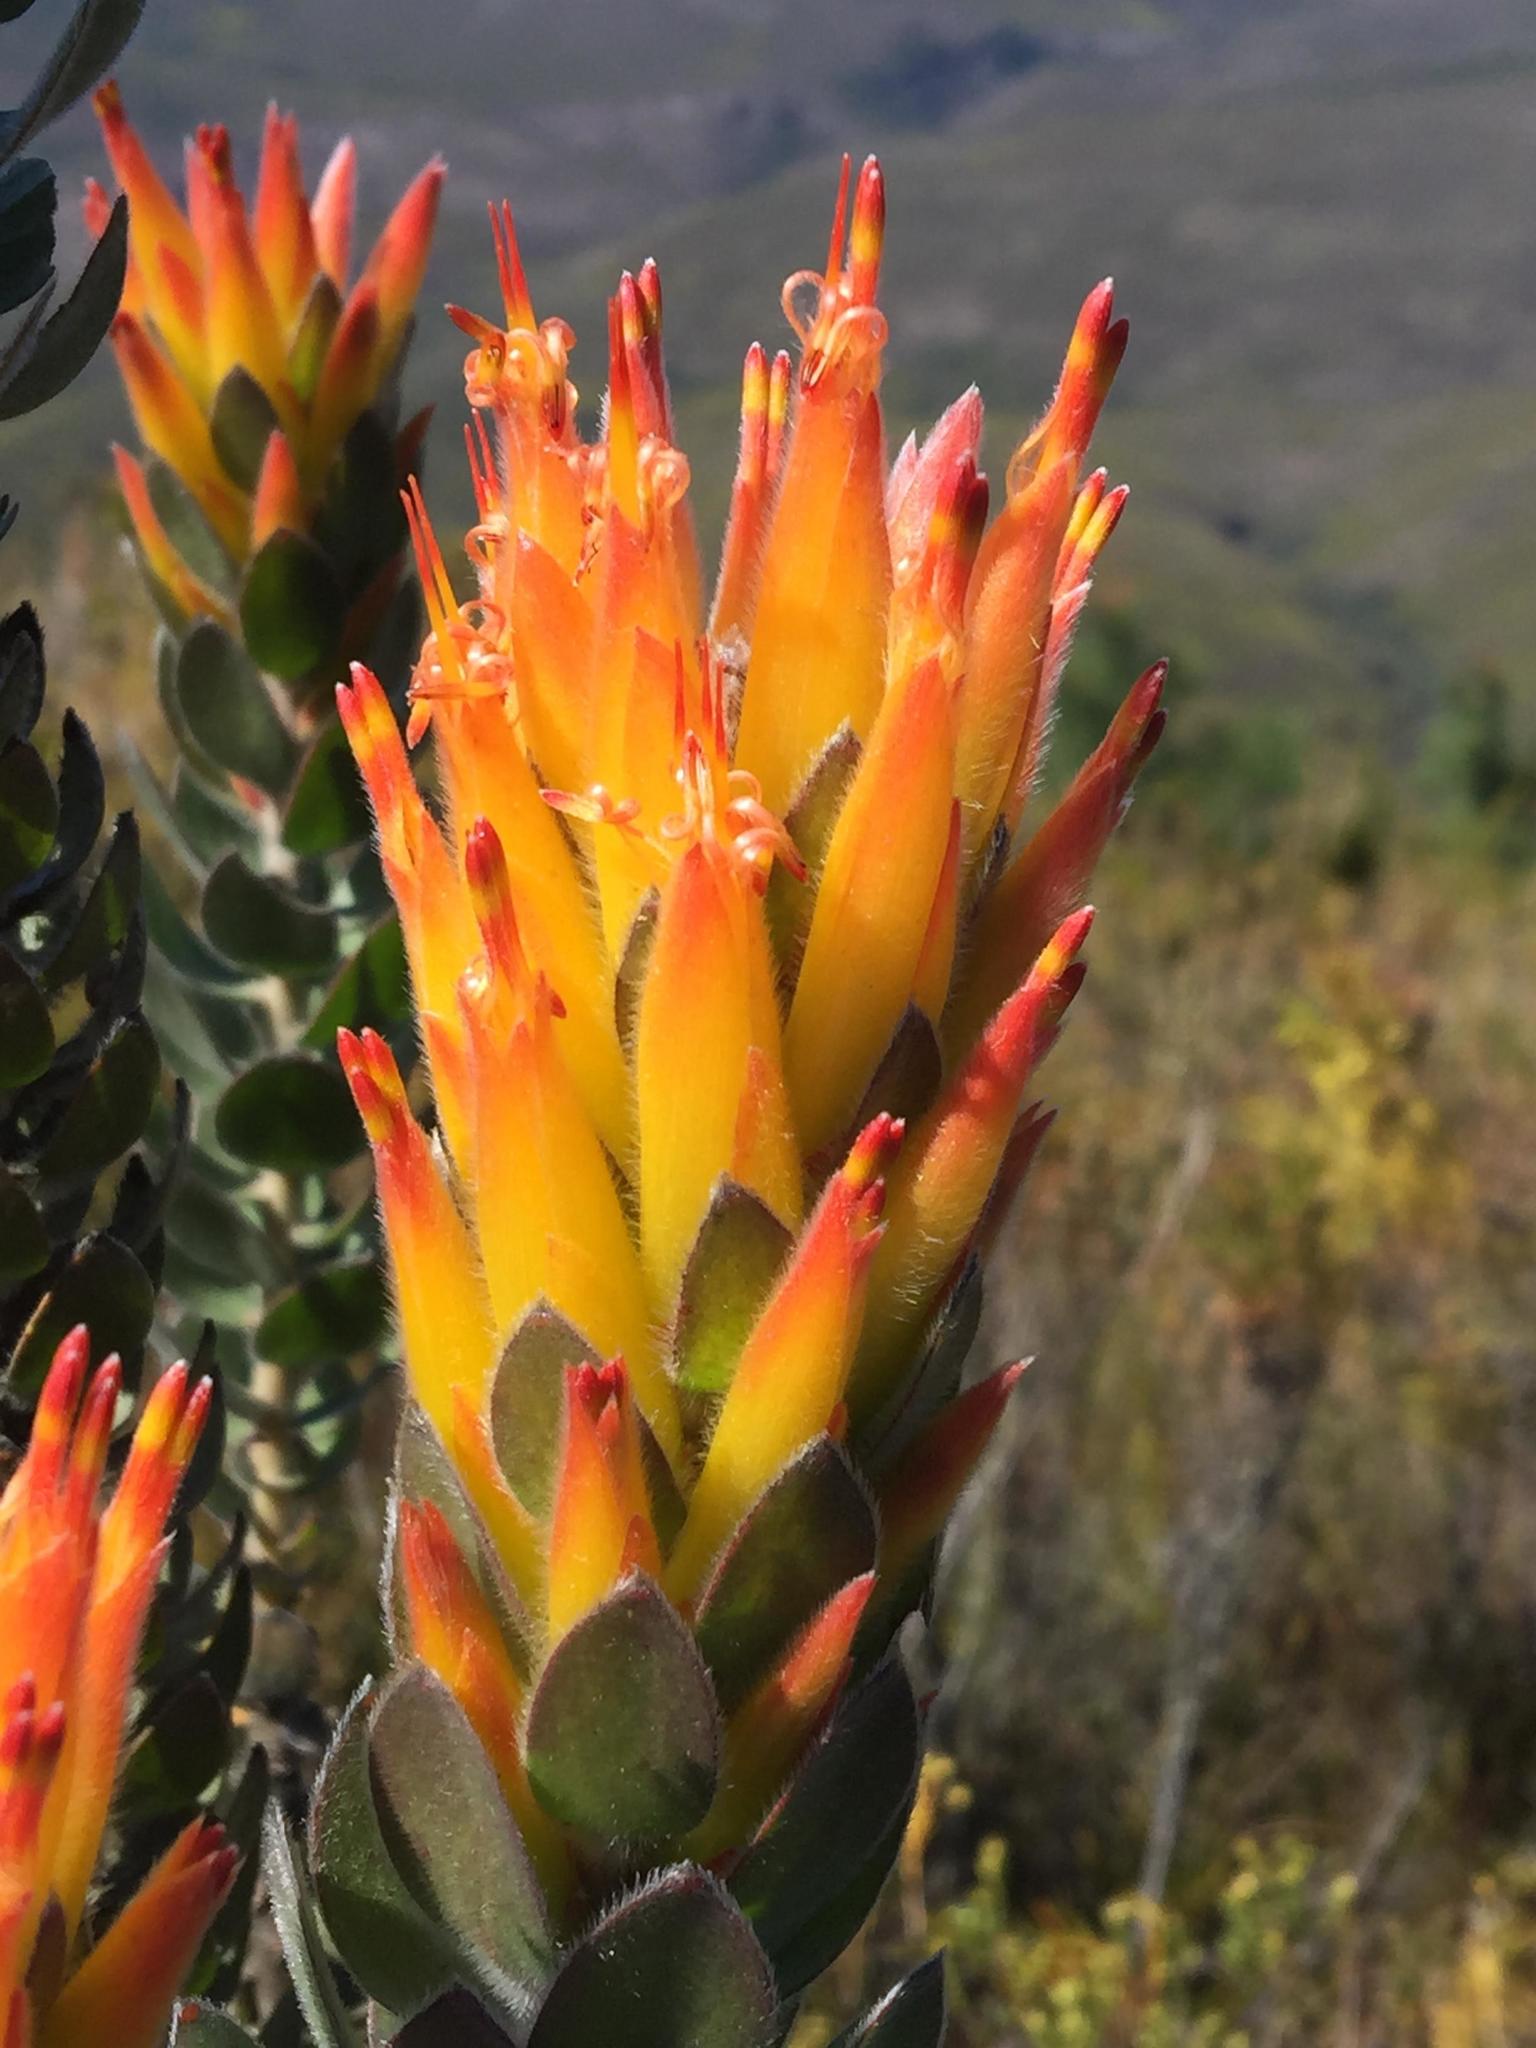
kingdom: Plantae
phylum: Tracheophyta
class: Magnoliopsida
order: Proteales
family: Proteaceae
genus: Mimetes
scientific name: Mimetes pauciflora
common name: Three-flowered pagoda
